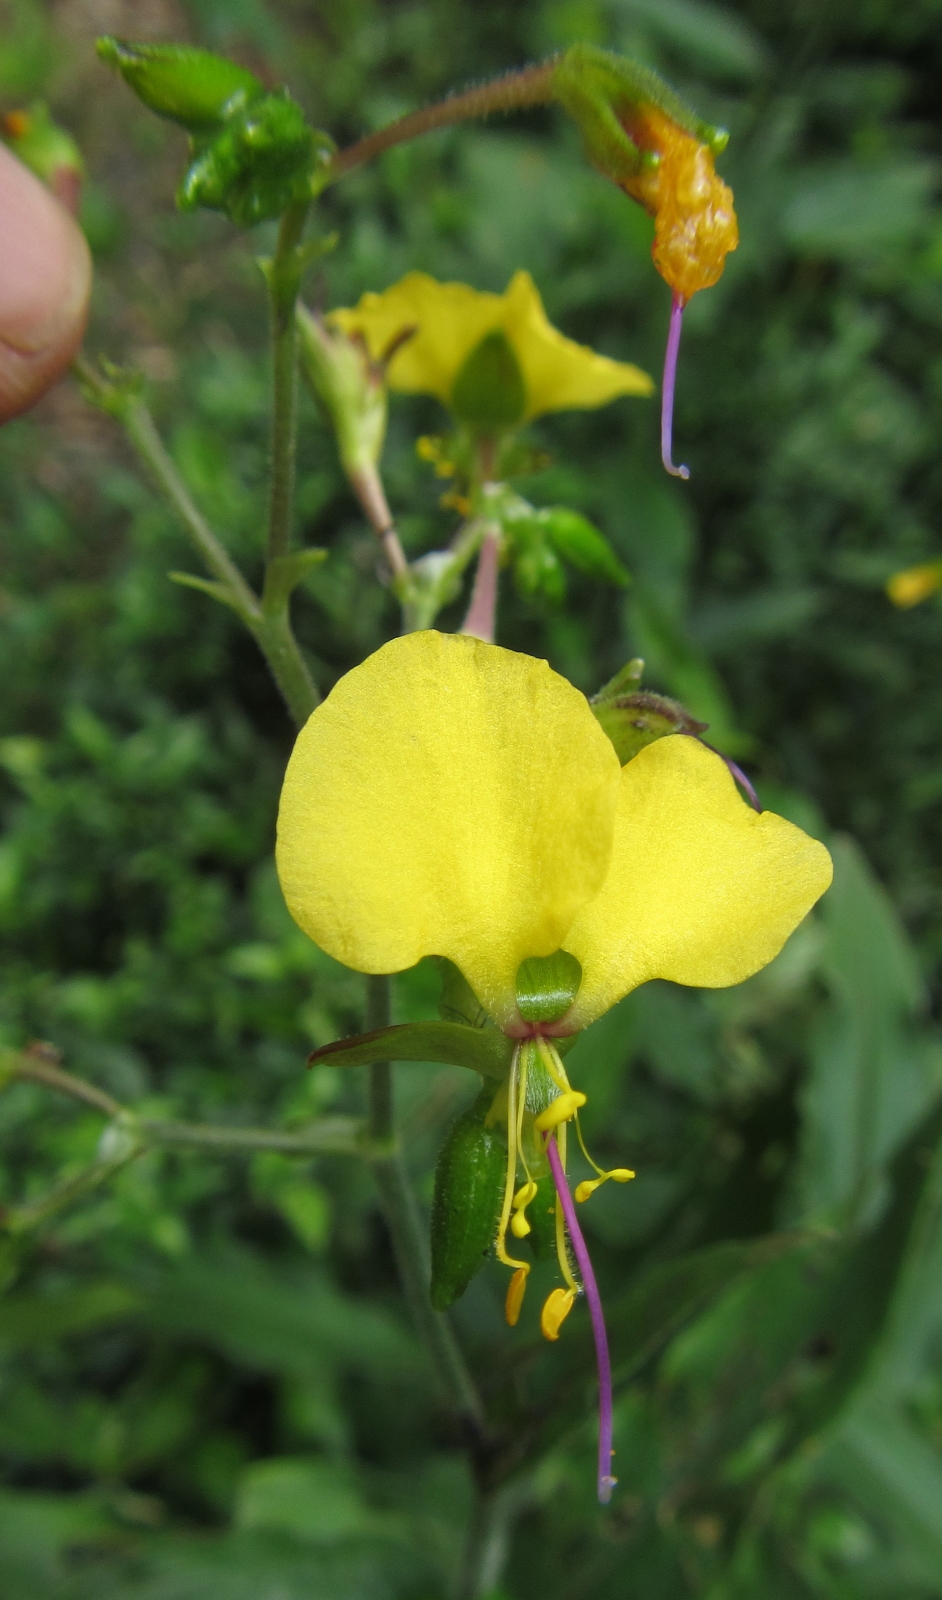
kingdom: Plantae
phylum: Tracheophyta
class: Liliopsida
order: Commelinales
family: Commelinaceae
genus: Aneilema
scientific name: Aneilema aequinoctiale
